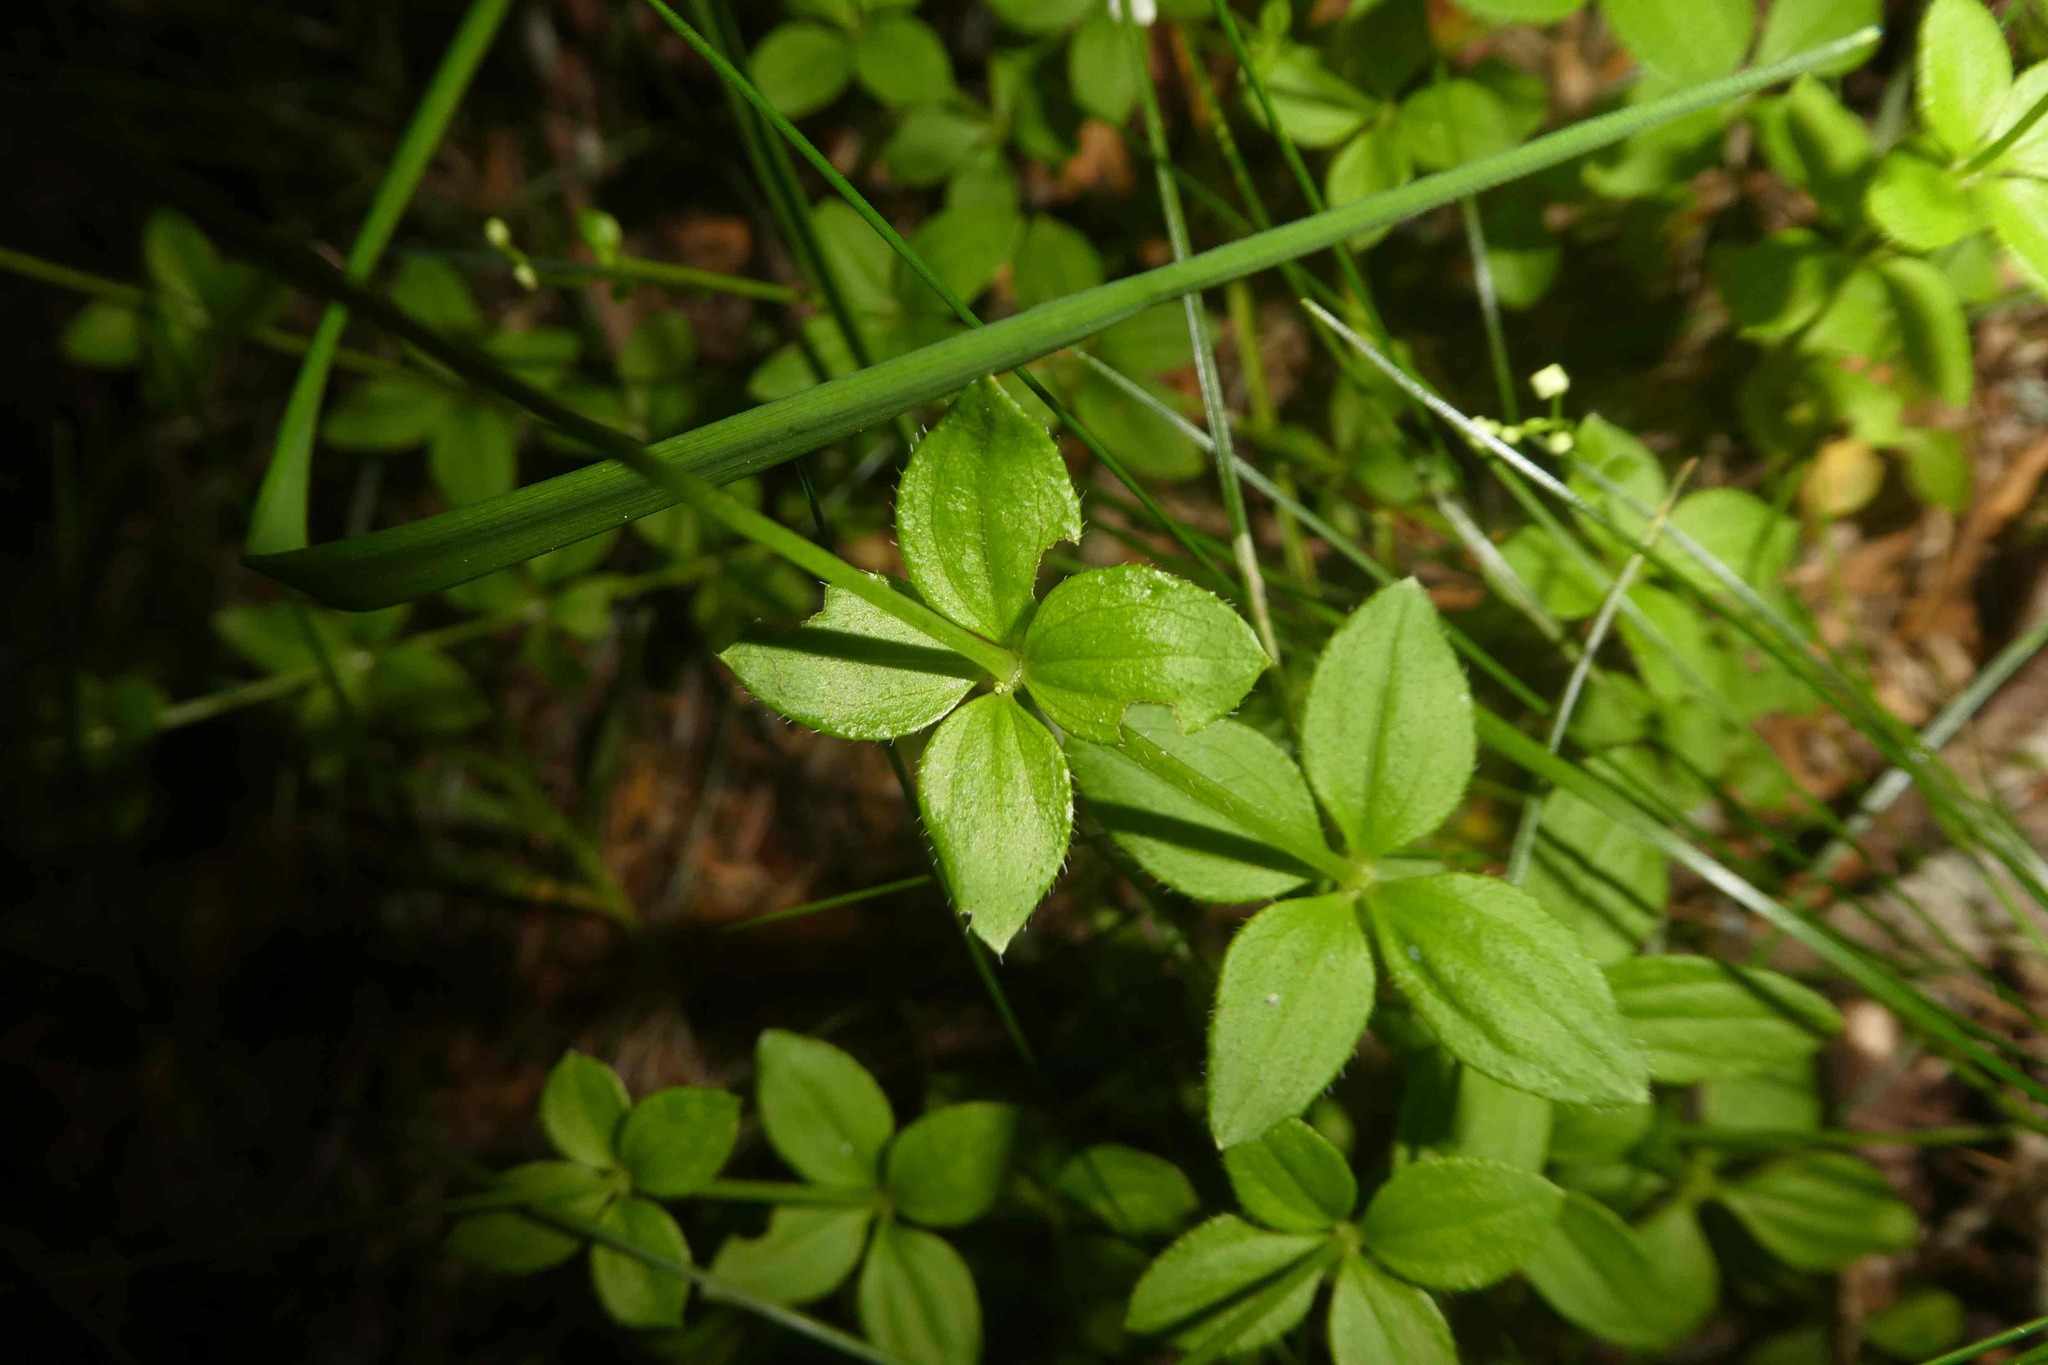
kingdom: Plantae
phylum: Tracheophyta
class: Magnoliopsida
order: Gentianales
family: Rubiaceae
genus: Galium
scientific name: Galium rotundifolium
